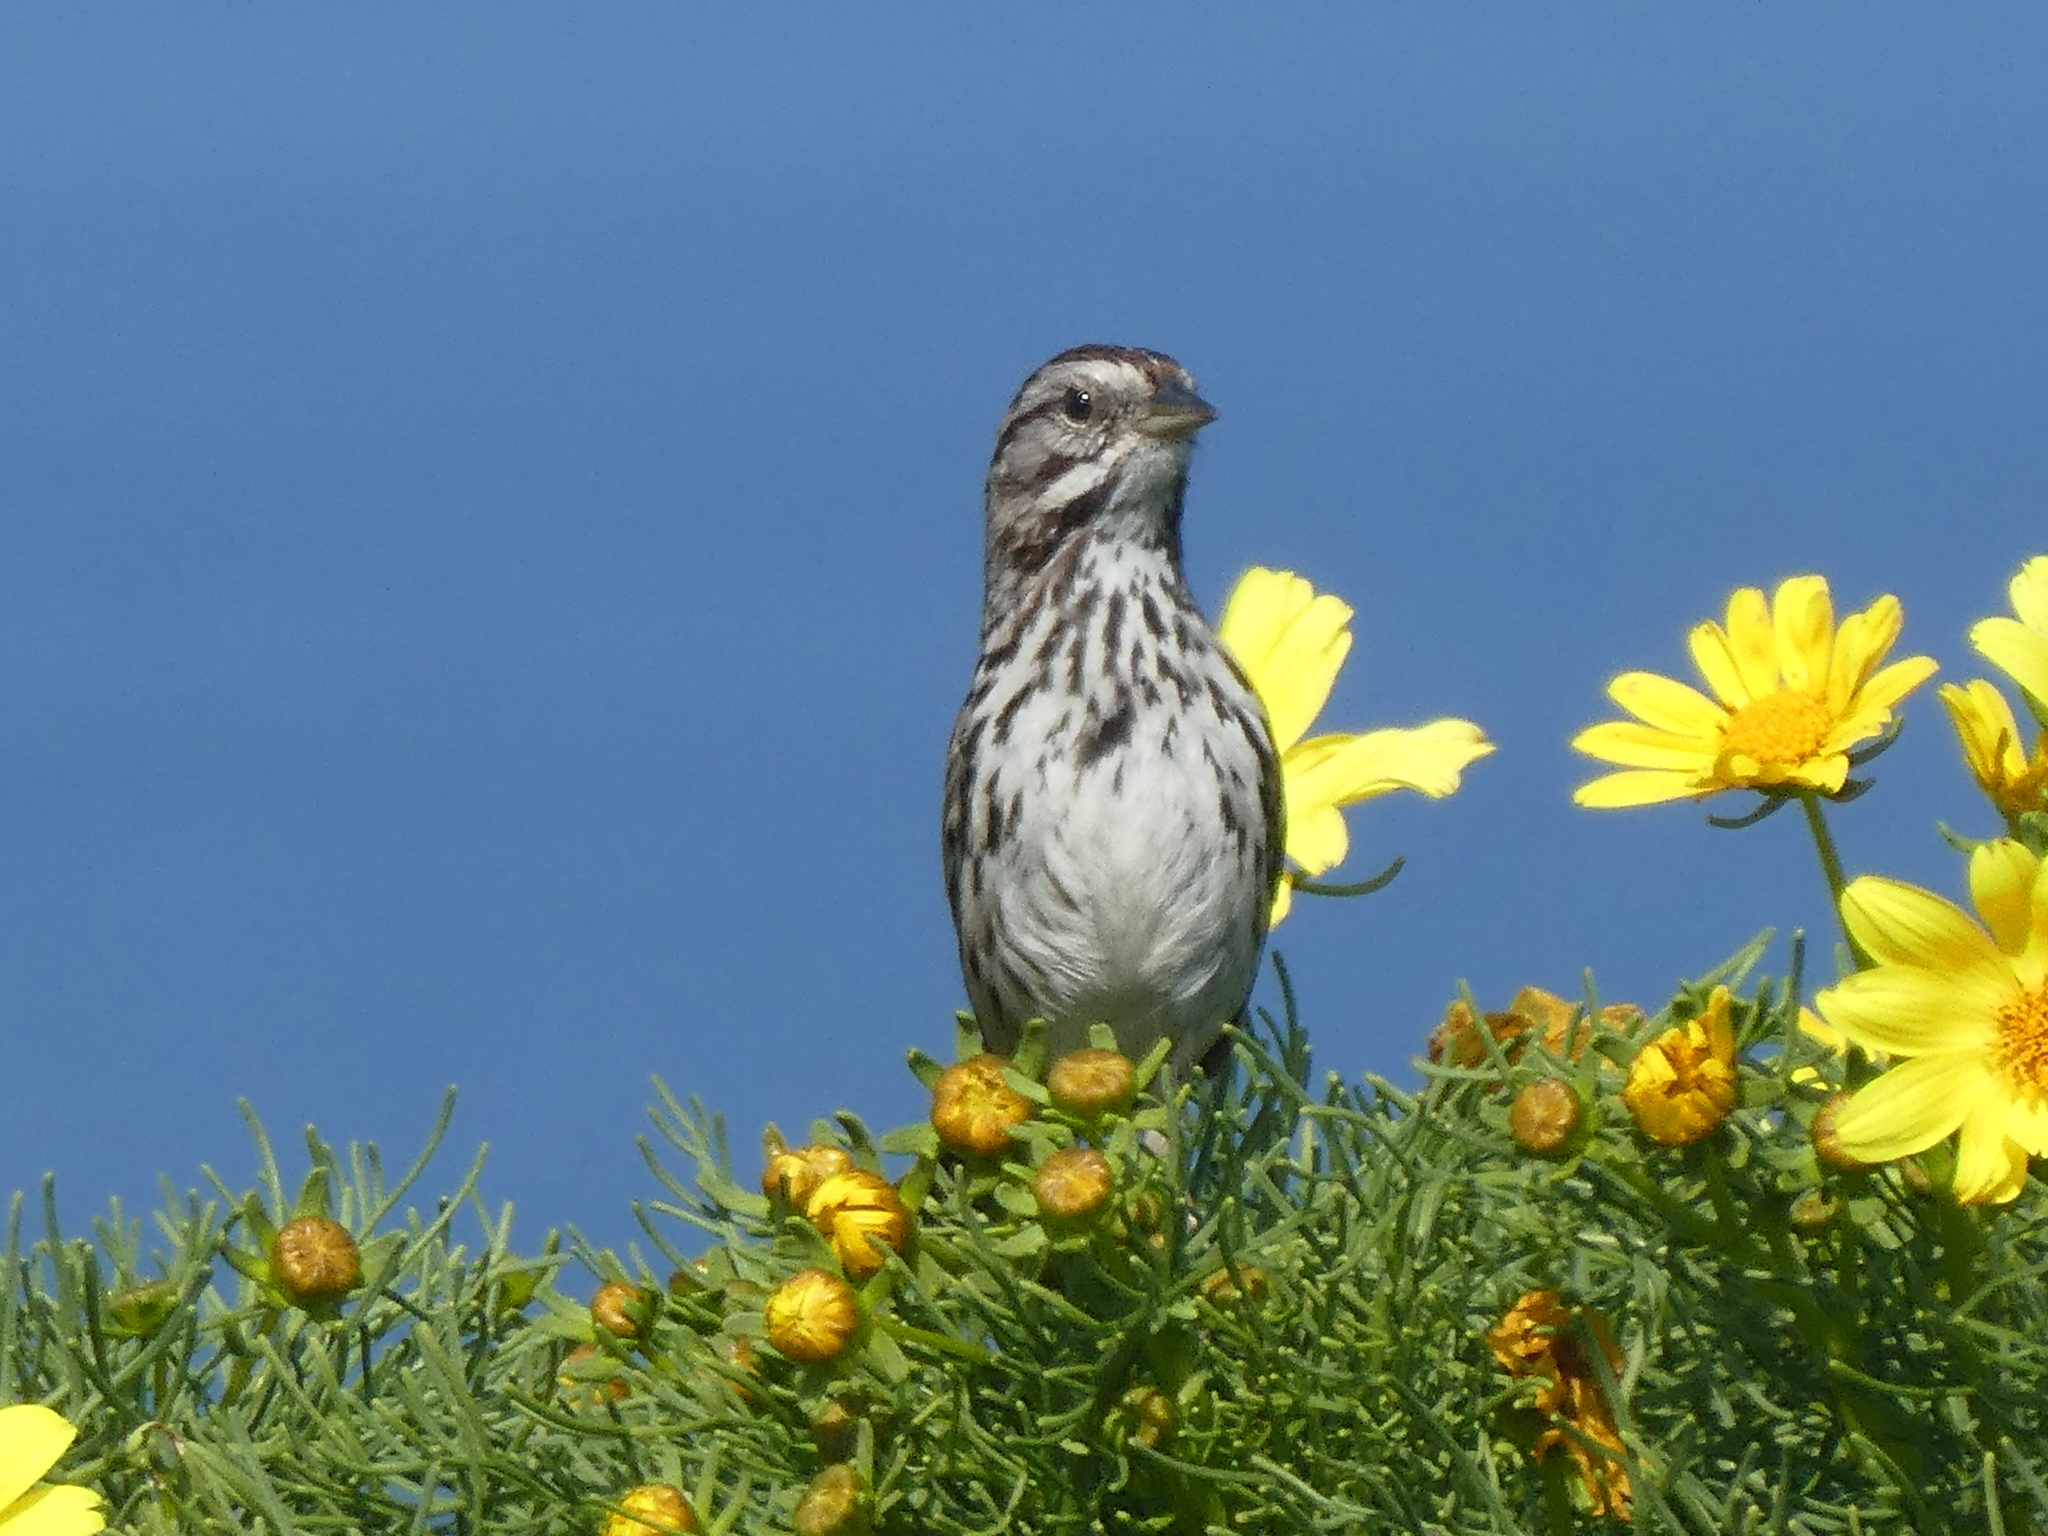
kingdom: Animalia
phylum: Chordata
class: Aves
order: Passeriformes
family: Passerellidae
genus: Melospiza
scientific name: Melospiza melodia
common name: Song sparrow
